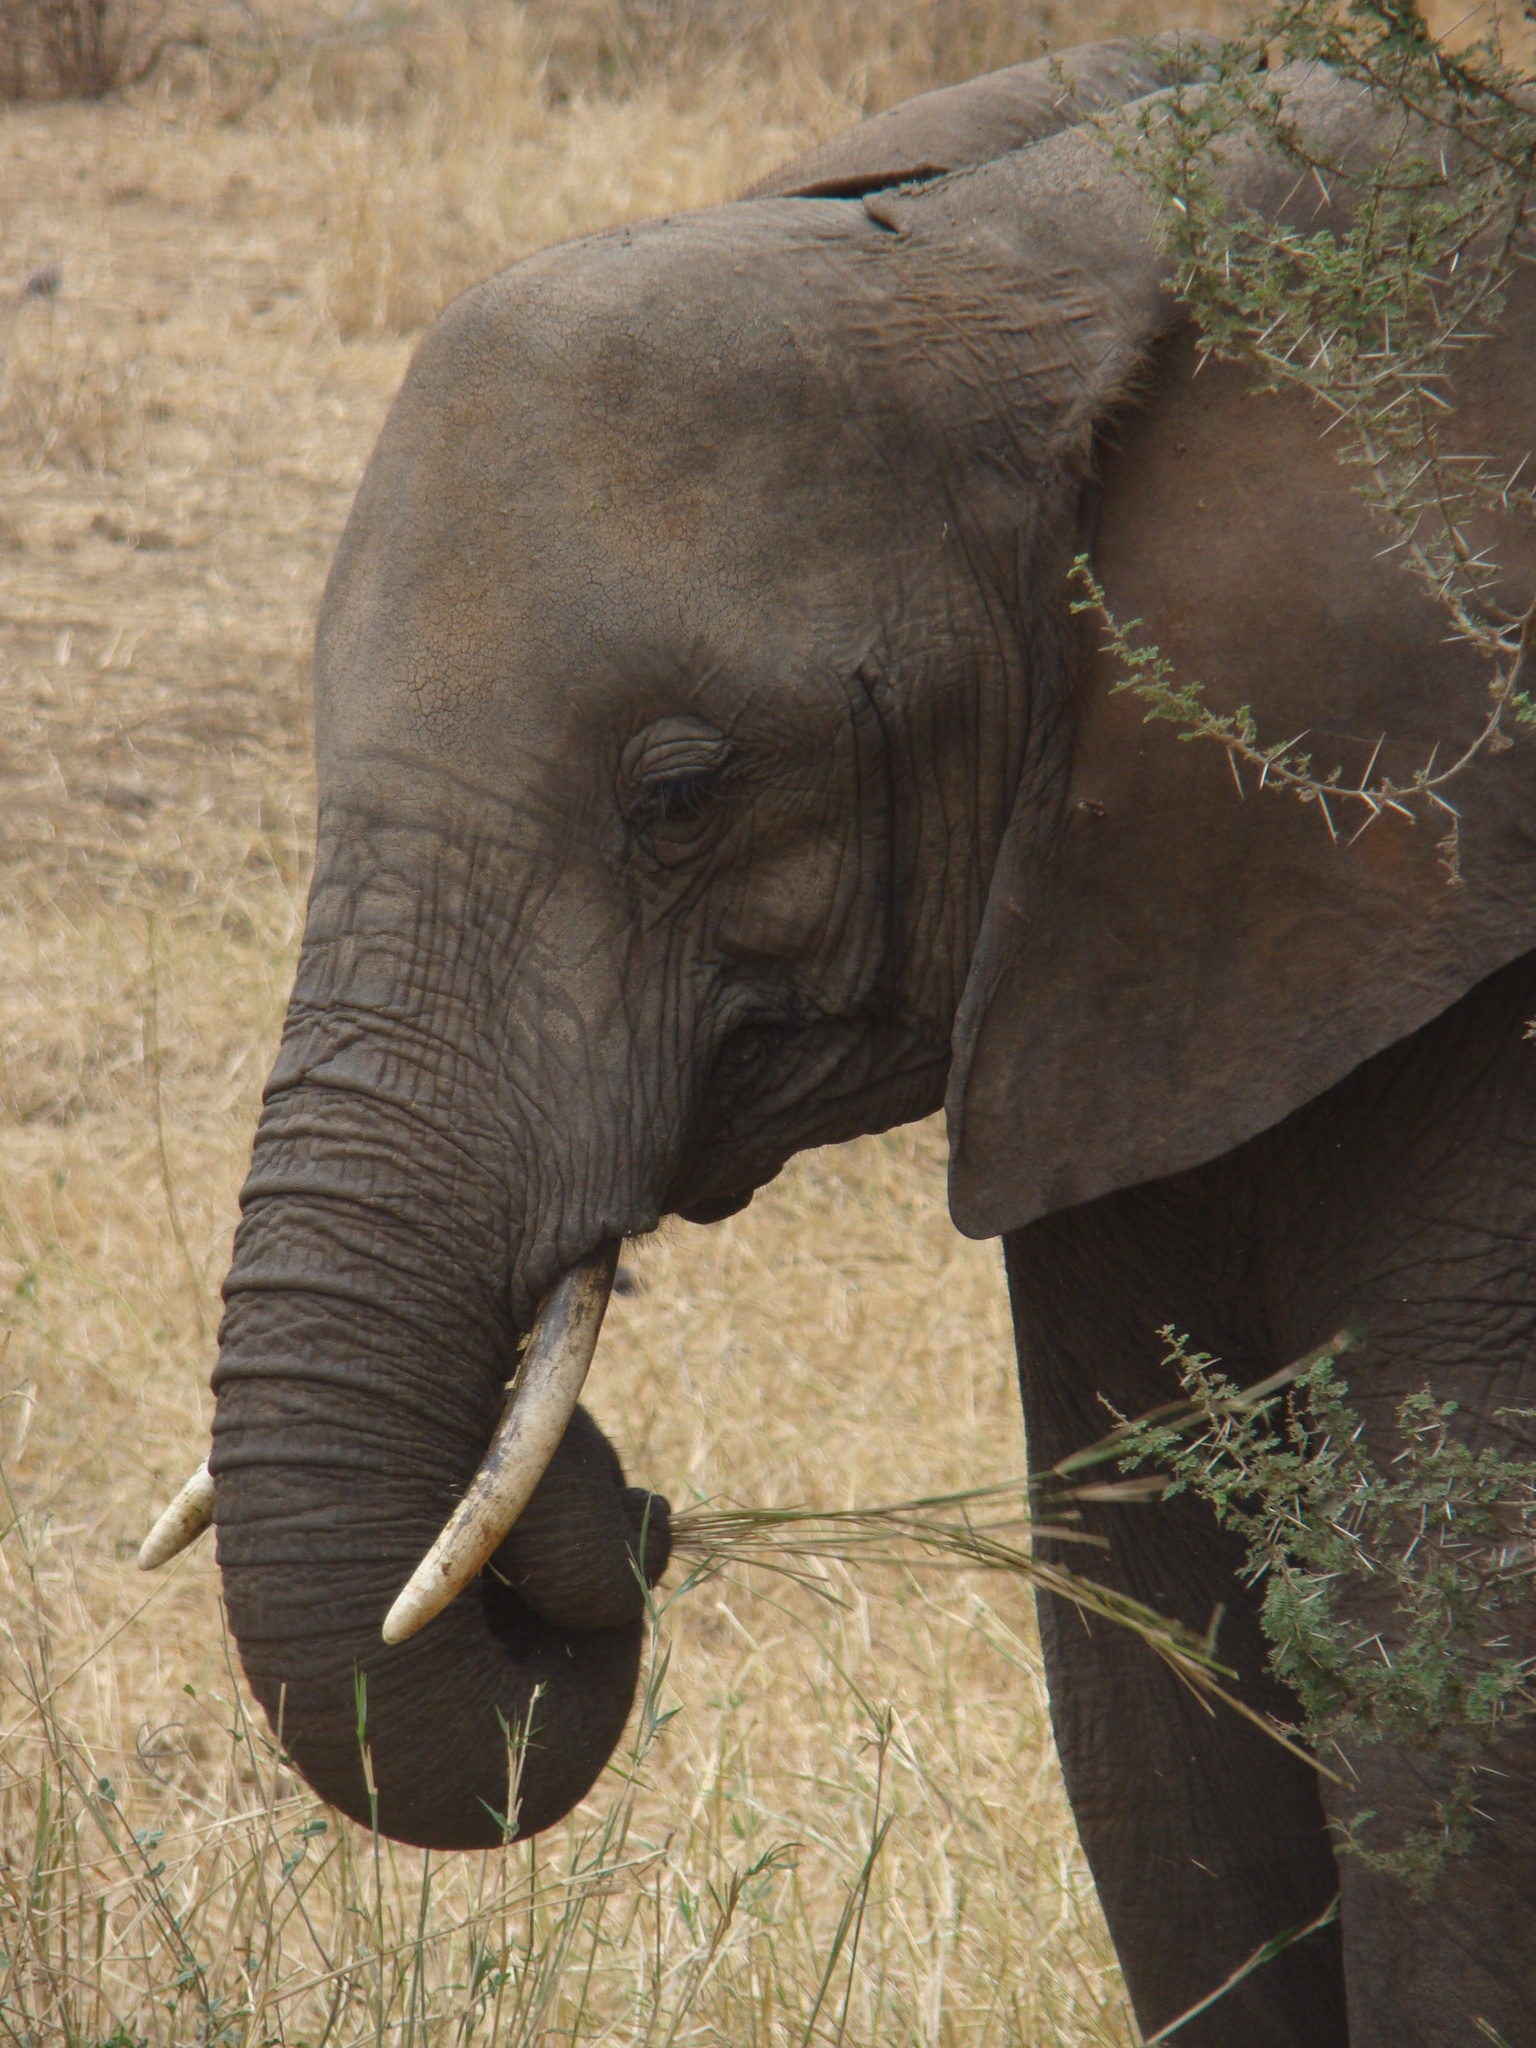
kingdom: Animalia
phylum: Chordata
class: Mammalia
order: Proboscidea
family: Elephantidae
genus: Loxodonta
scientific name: Loxodonta africana
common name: African elephant
